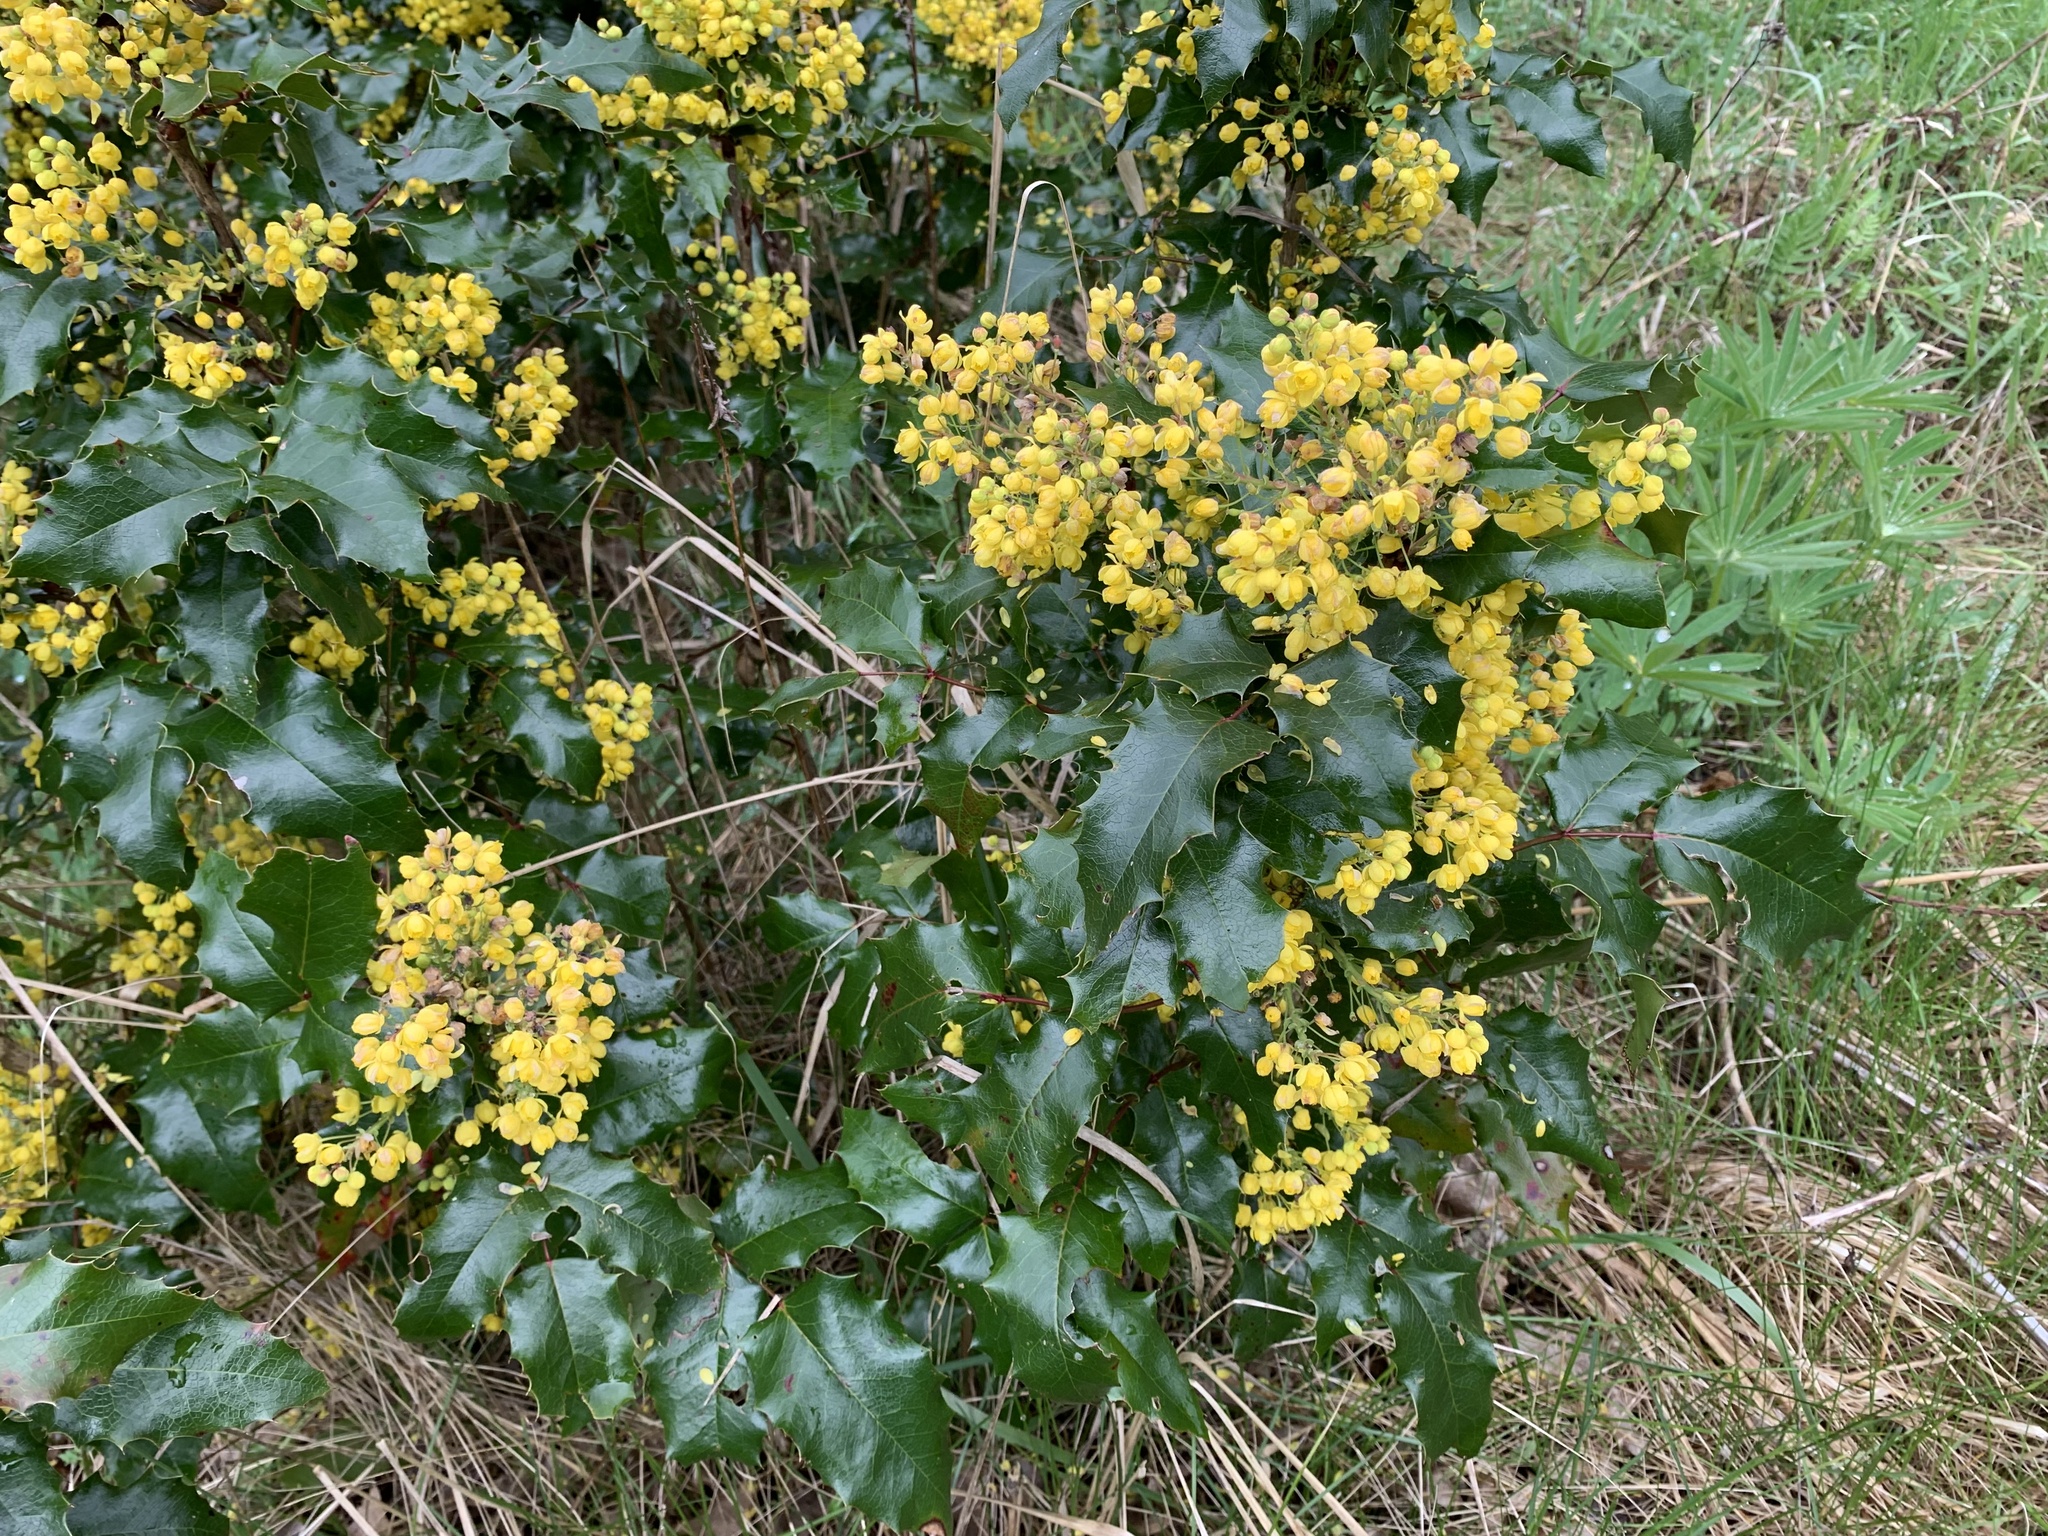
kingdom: Plantae
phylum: Tracheophyta
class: Magnoliopsida
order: Ranunculales
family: Berberidaceae
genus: Mahonia
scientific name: Mahonia aquifolium
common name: Oregon-grape
